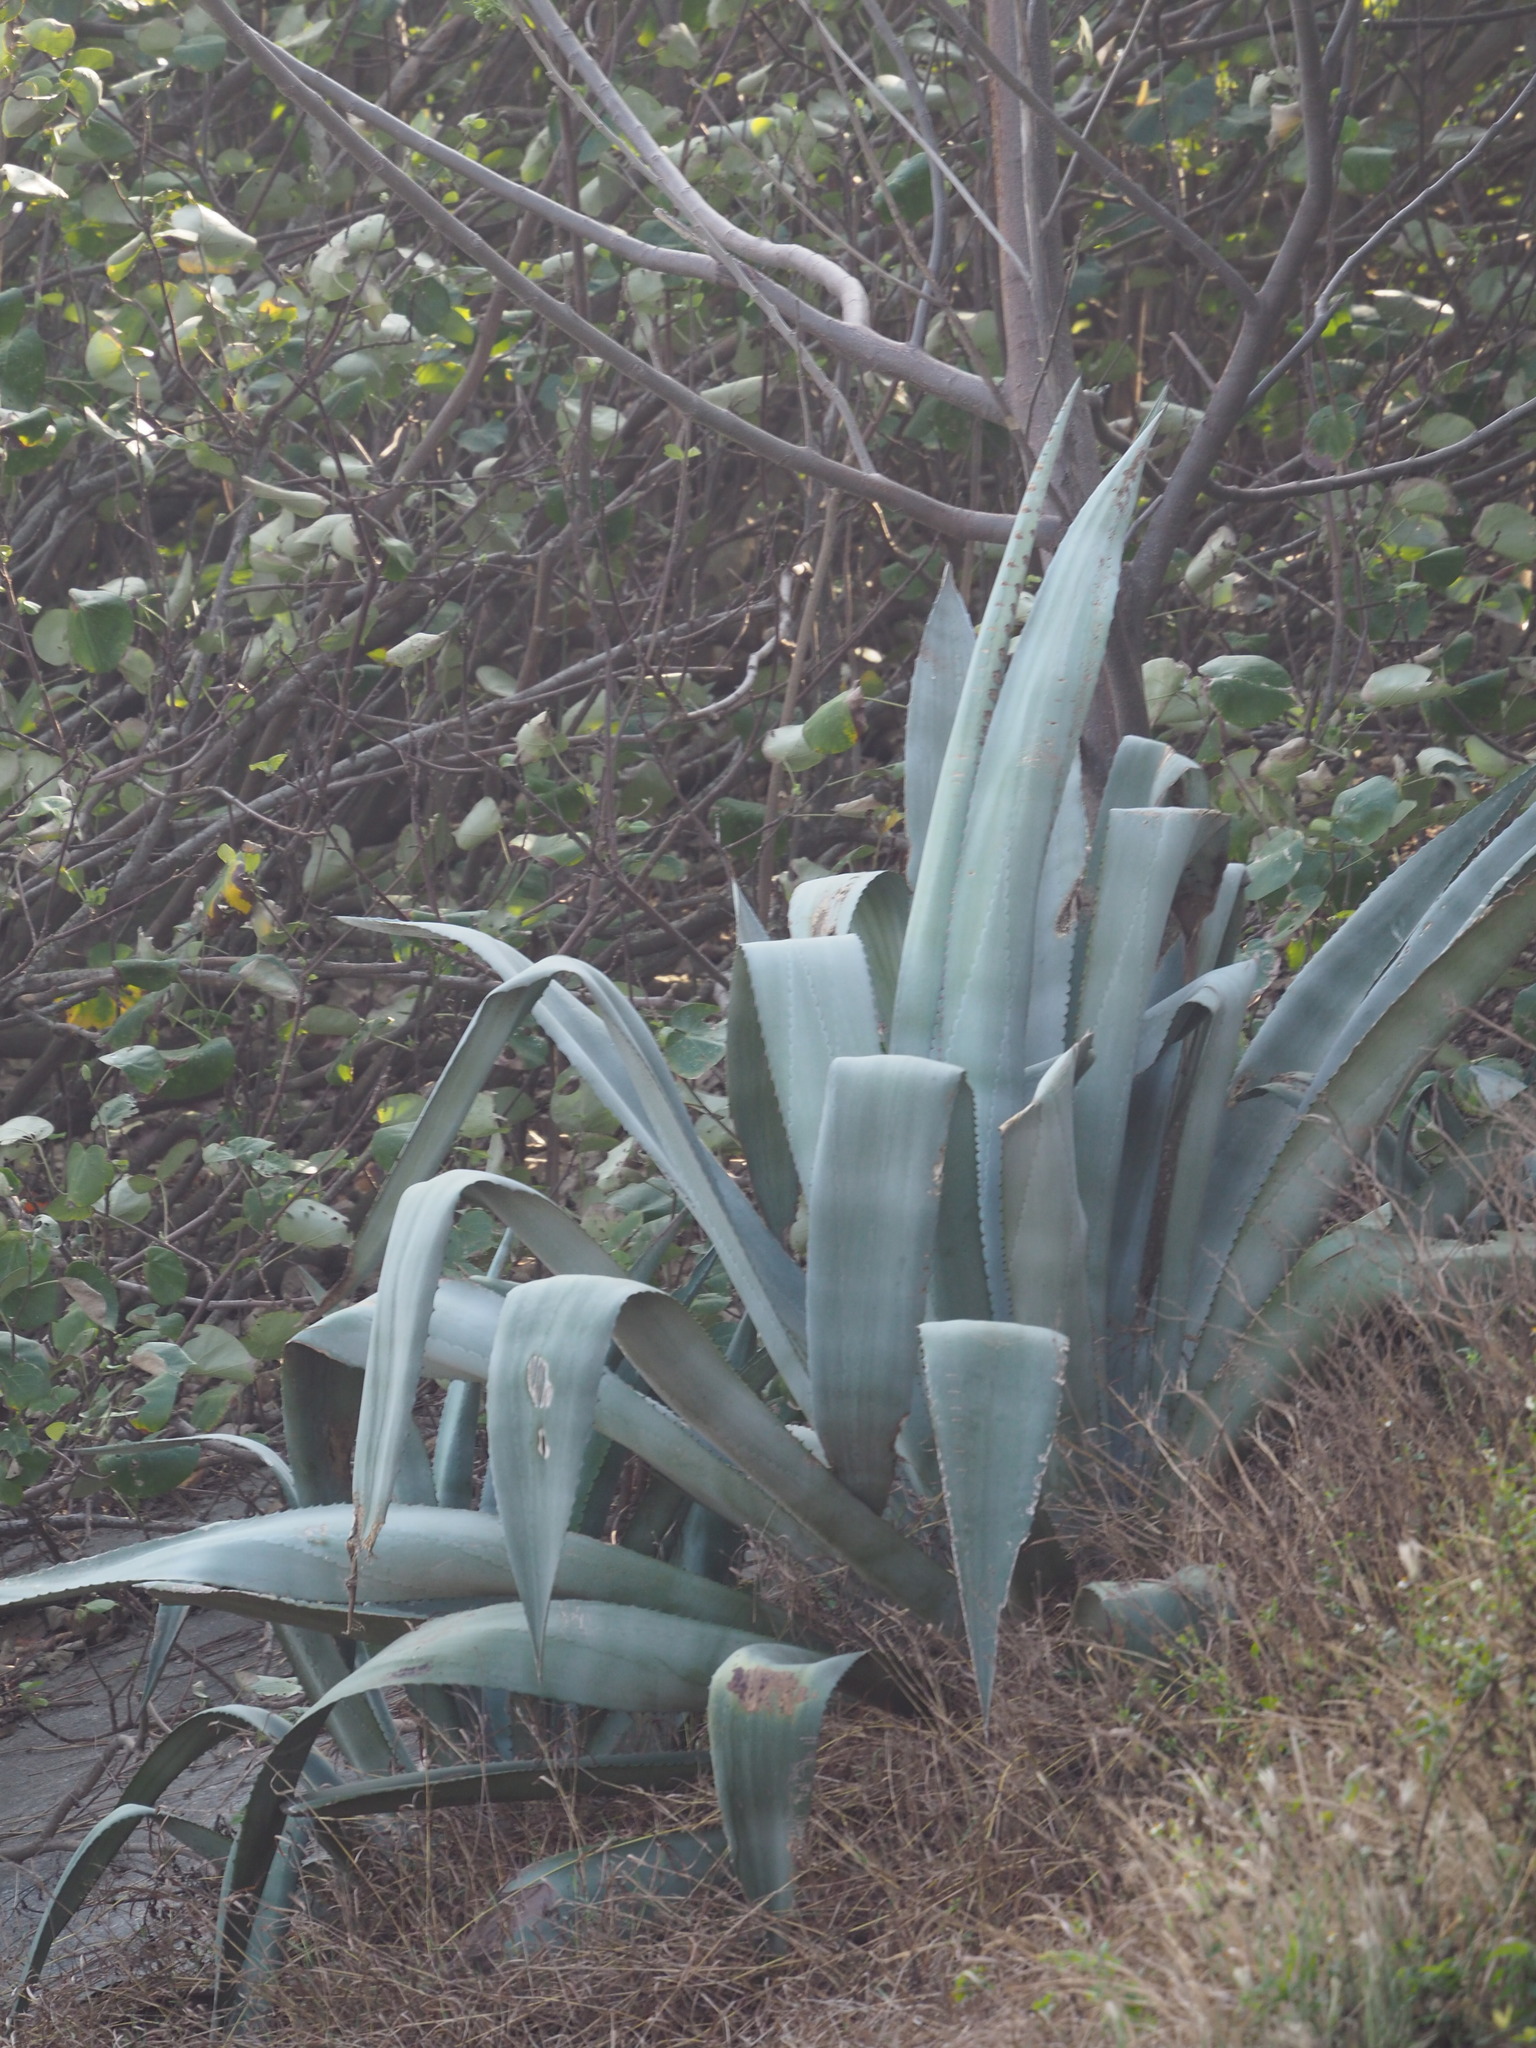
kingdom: Plantae
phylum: Tracheophyta
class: Liliopsida
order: Asparagales
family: Asparagaceae
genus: Agave
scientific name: Agave americana
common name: Centuryplant
